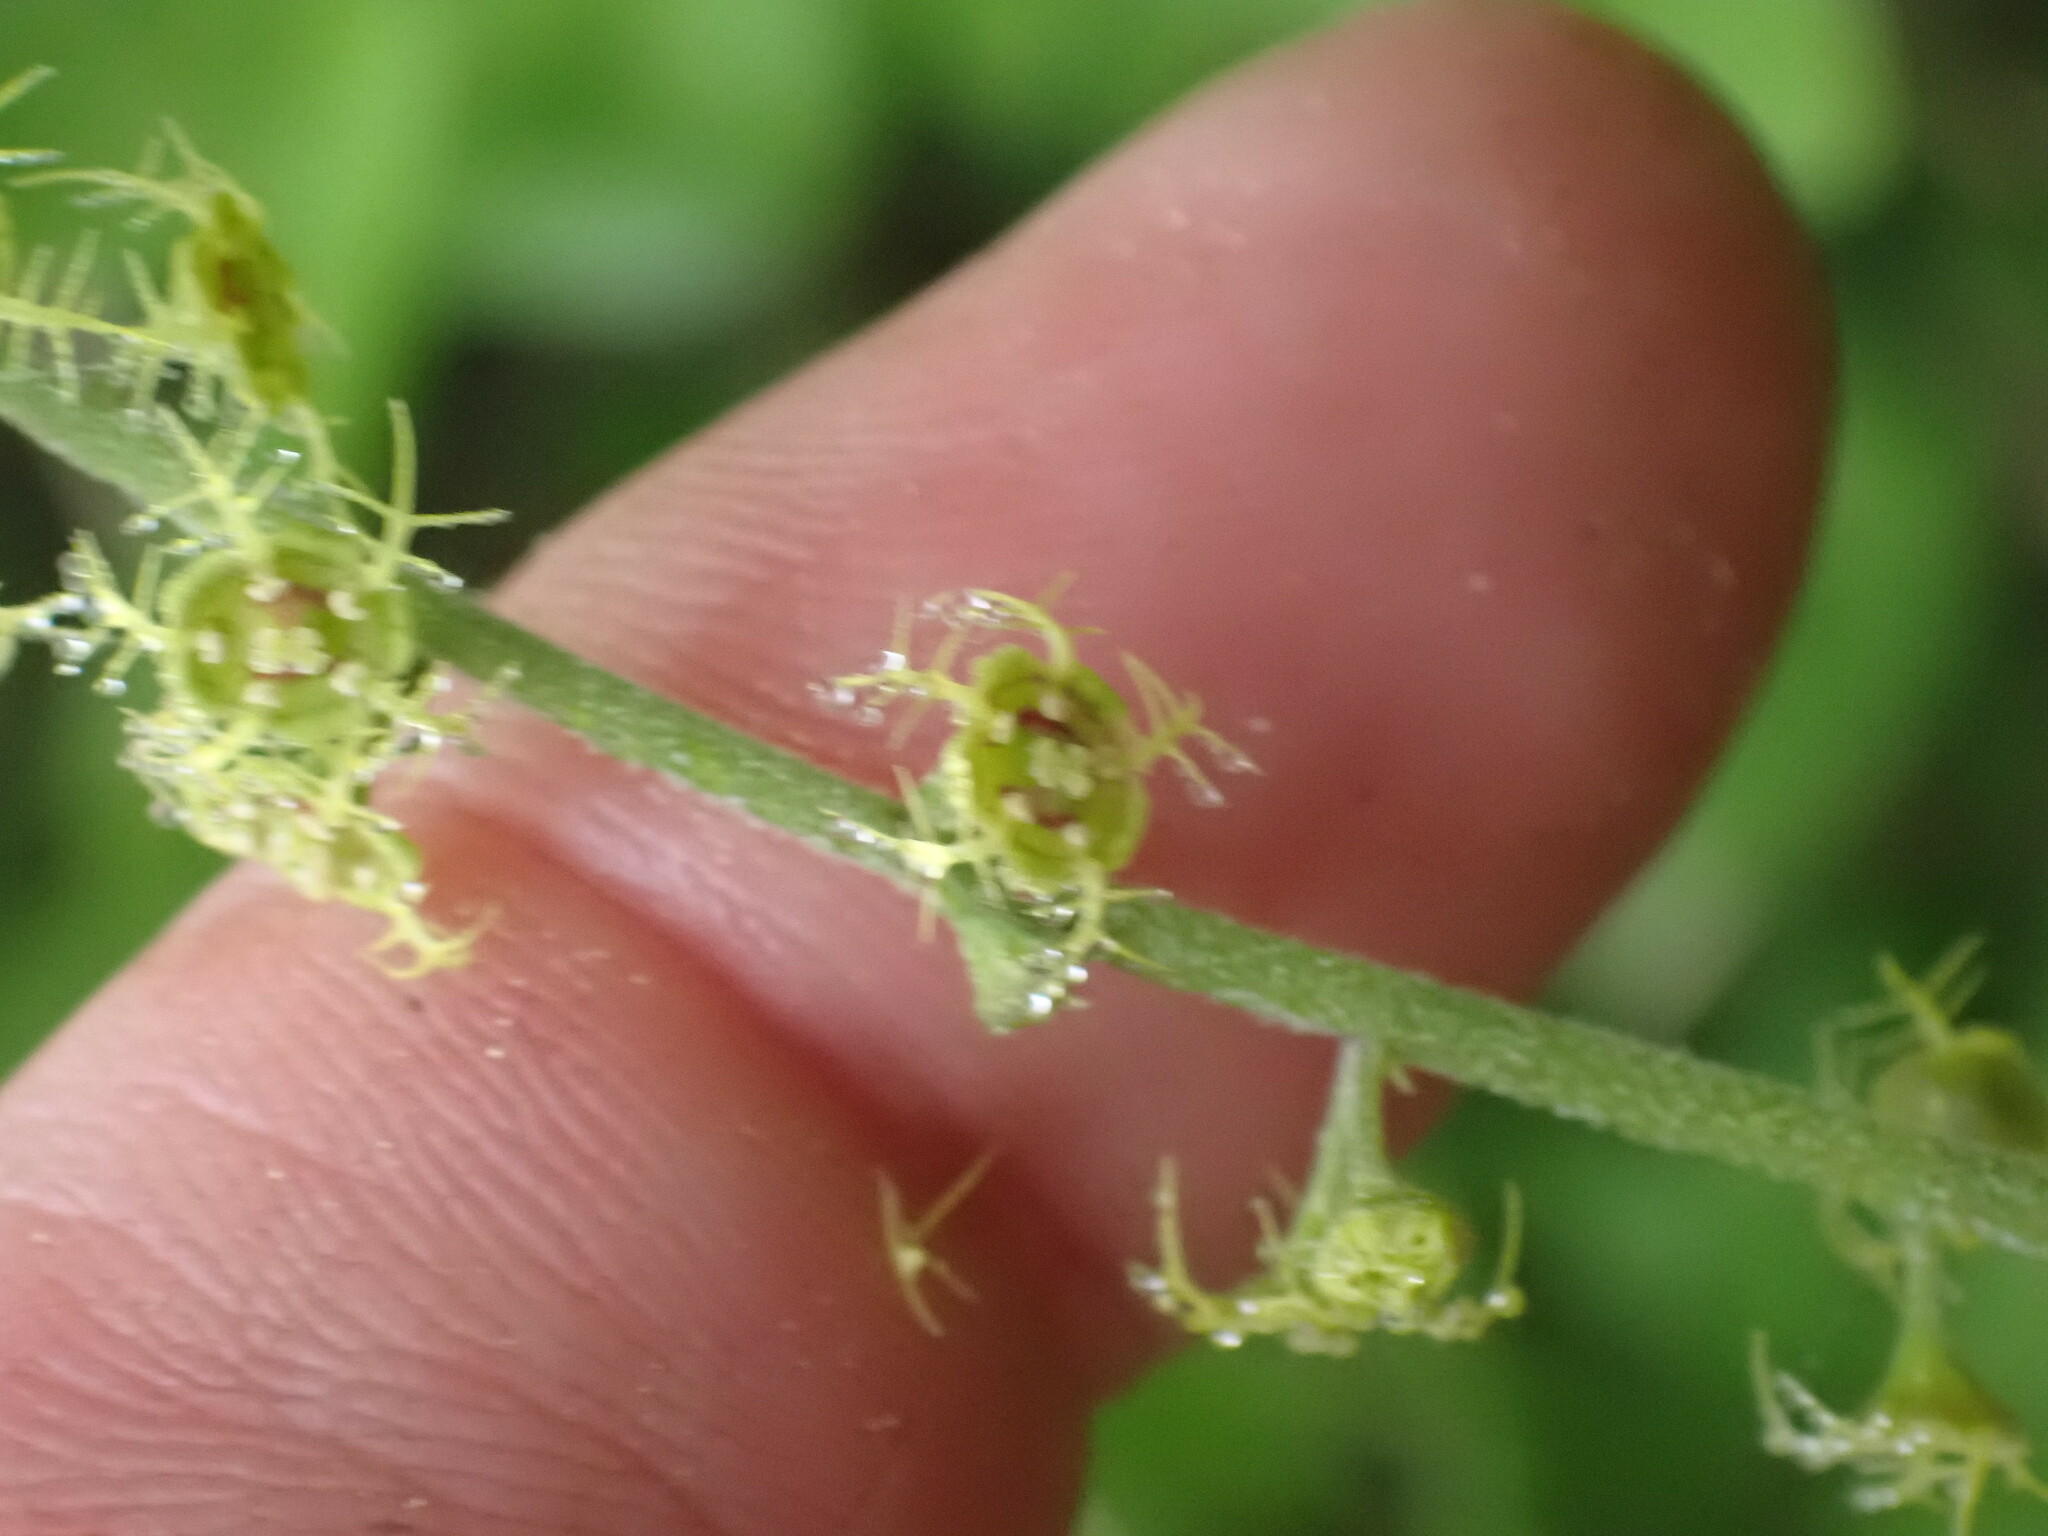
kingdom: Plantae
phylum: Tracheophyta
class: Magnoliopsida
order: Saxifragales
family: Saxifragaceae
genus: Pectiantia
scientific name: Pectiantia pentandra
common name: Alpine bishop's-cap
